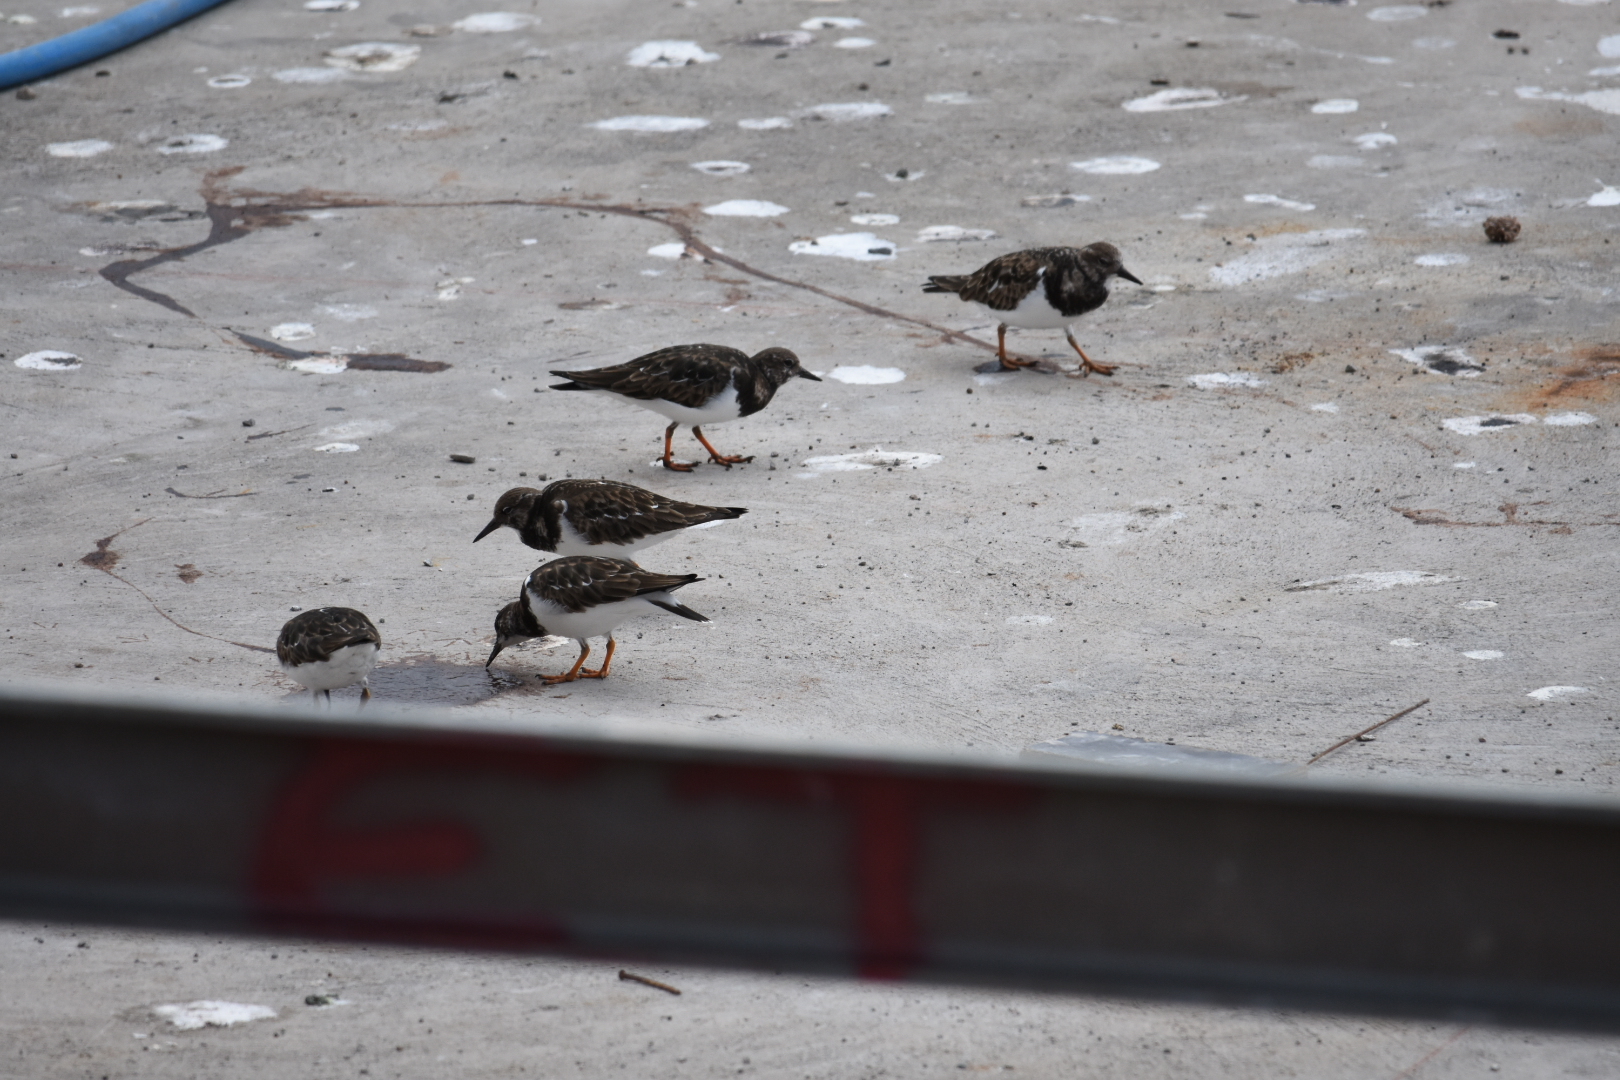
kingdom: Animalia
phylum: Chordata
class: Aves
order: Charadriiformes
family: Scolopacidae
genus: Arenaria
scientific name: Arenaria interpres
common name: Ruddy turnstone
